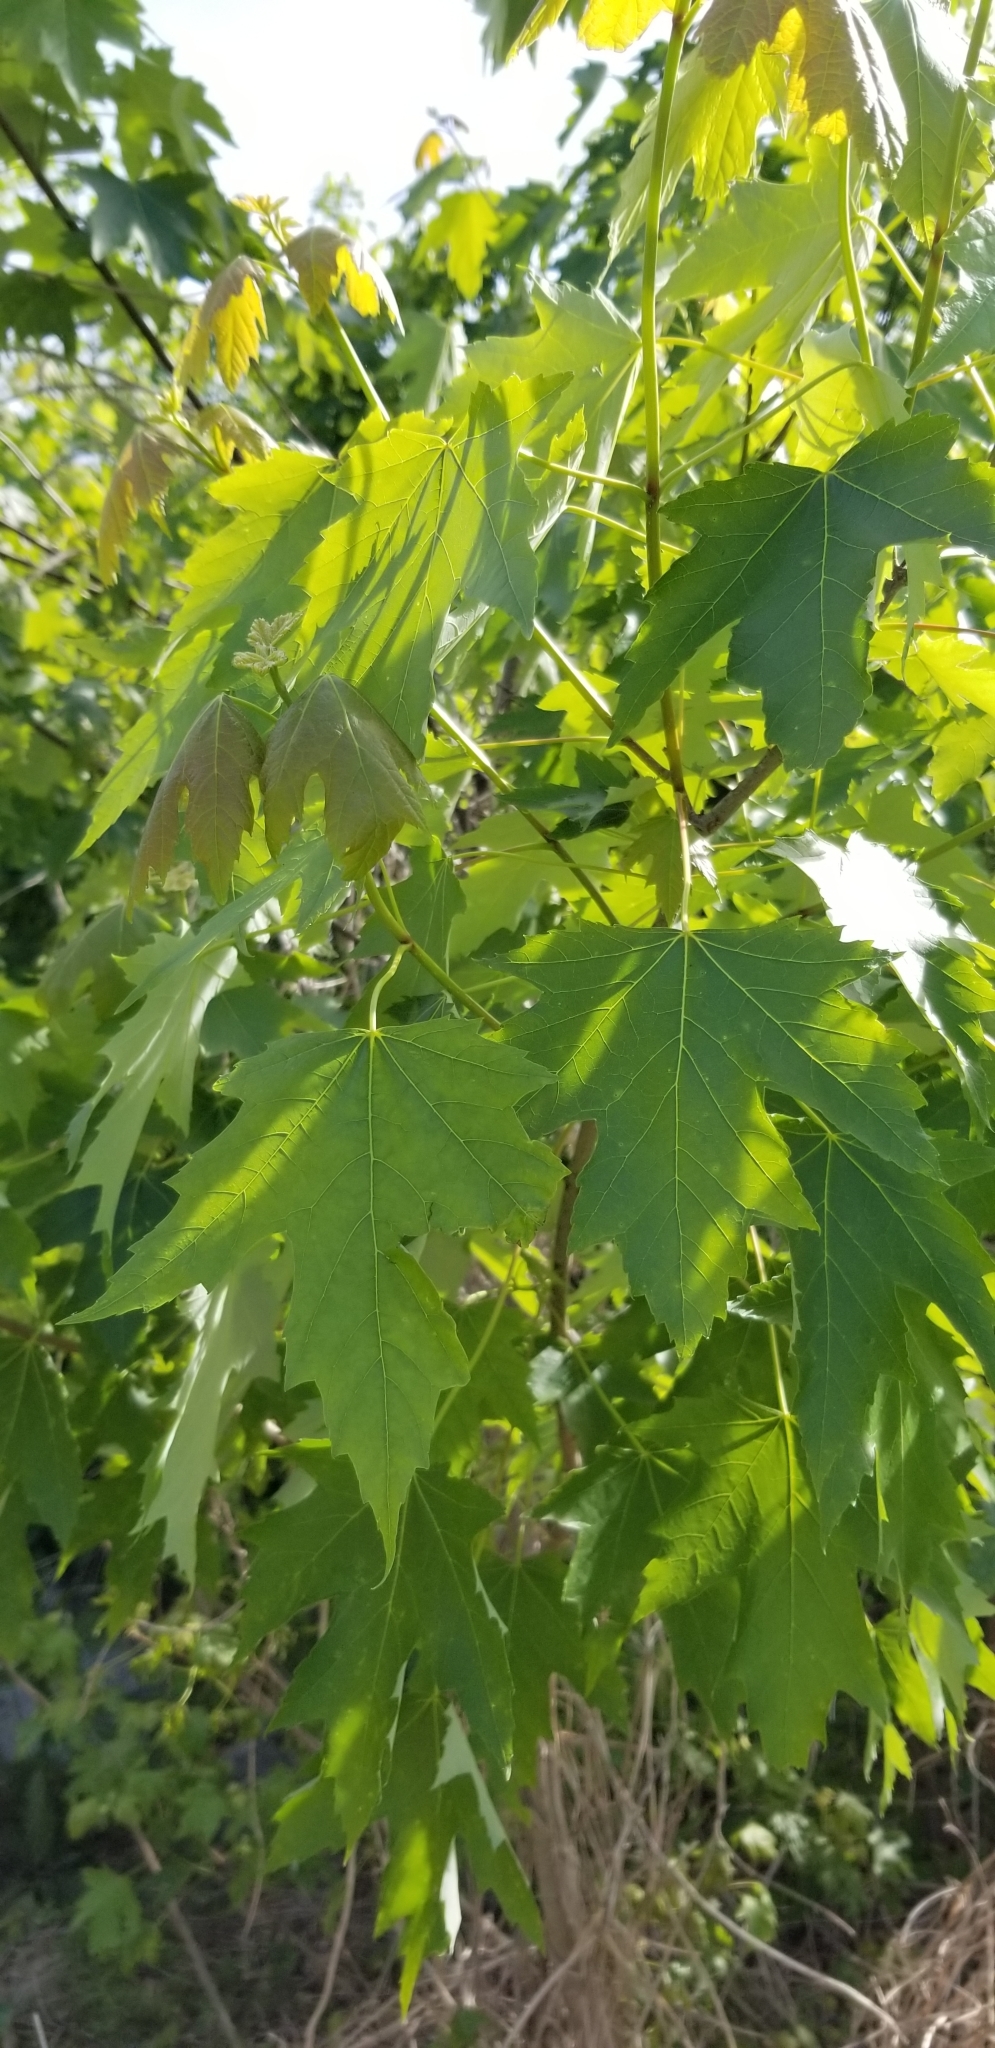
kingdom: Plantae
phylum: Tracheophyta
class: Magnoliopsida
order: Sapindales
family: Sapindaceae
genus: Acer
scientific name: Acer saccharinum
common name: Silver maple
